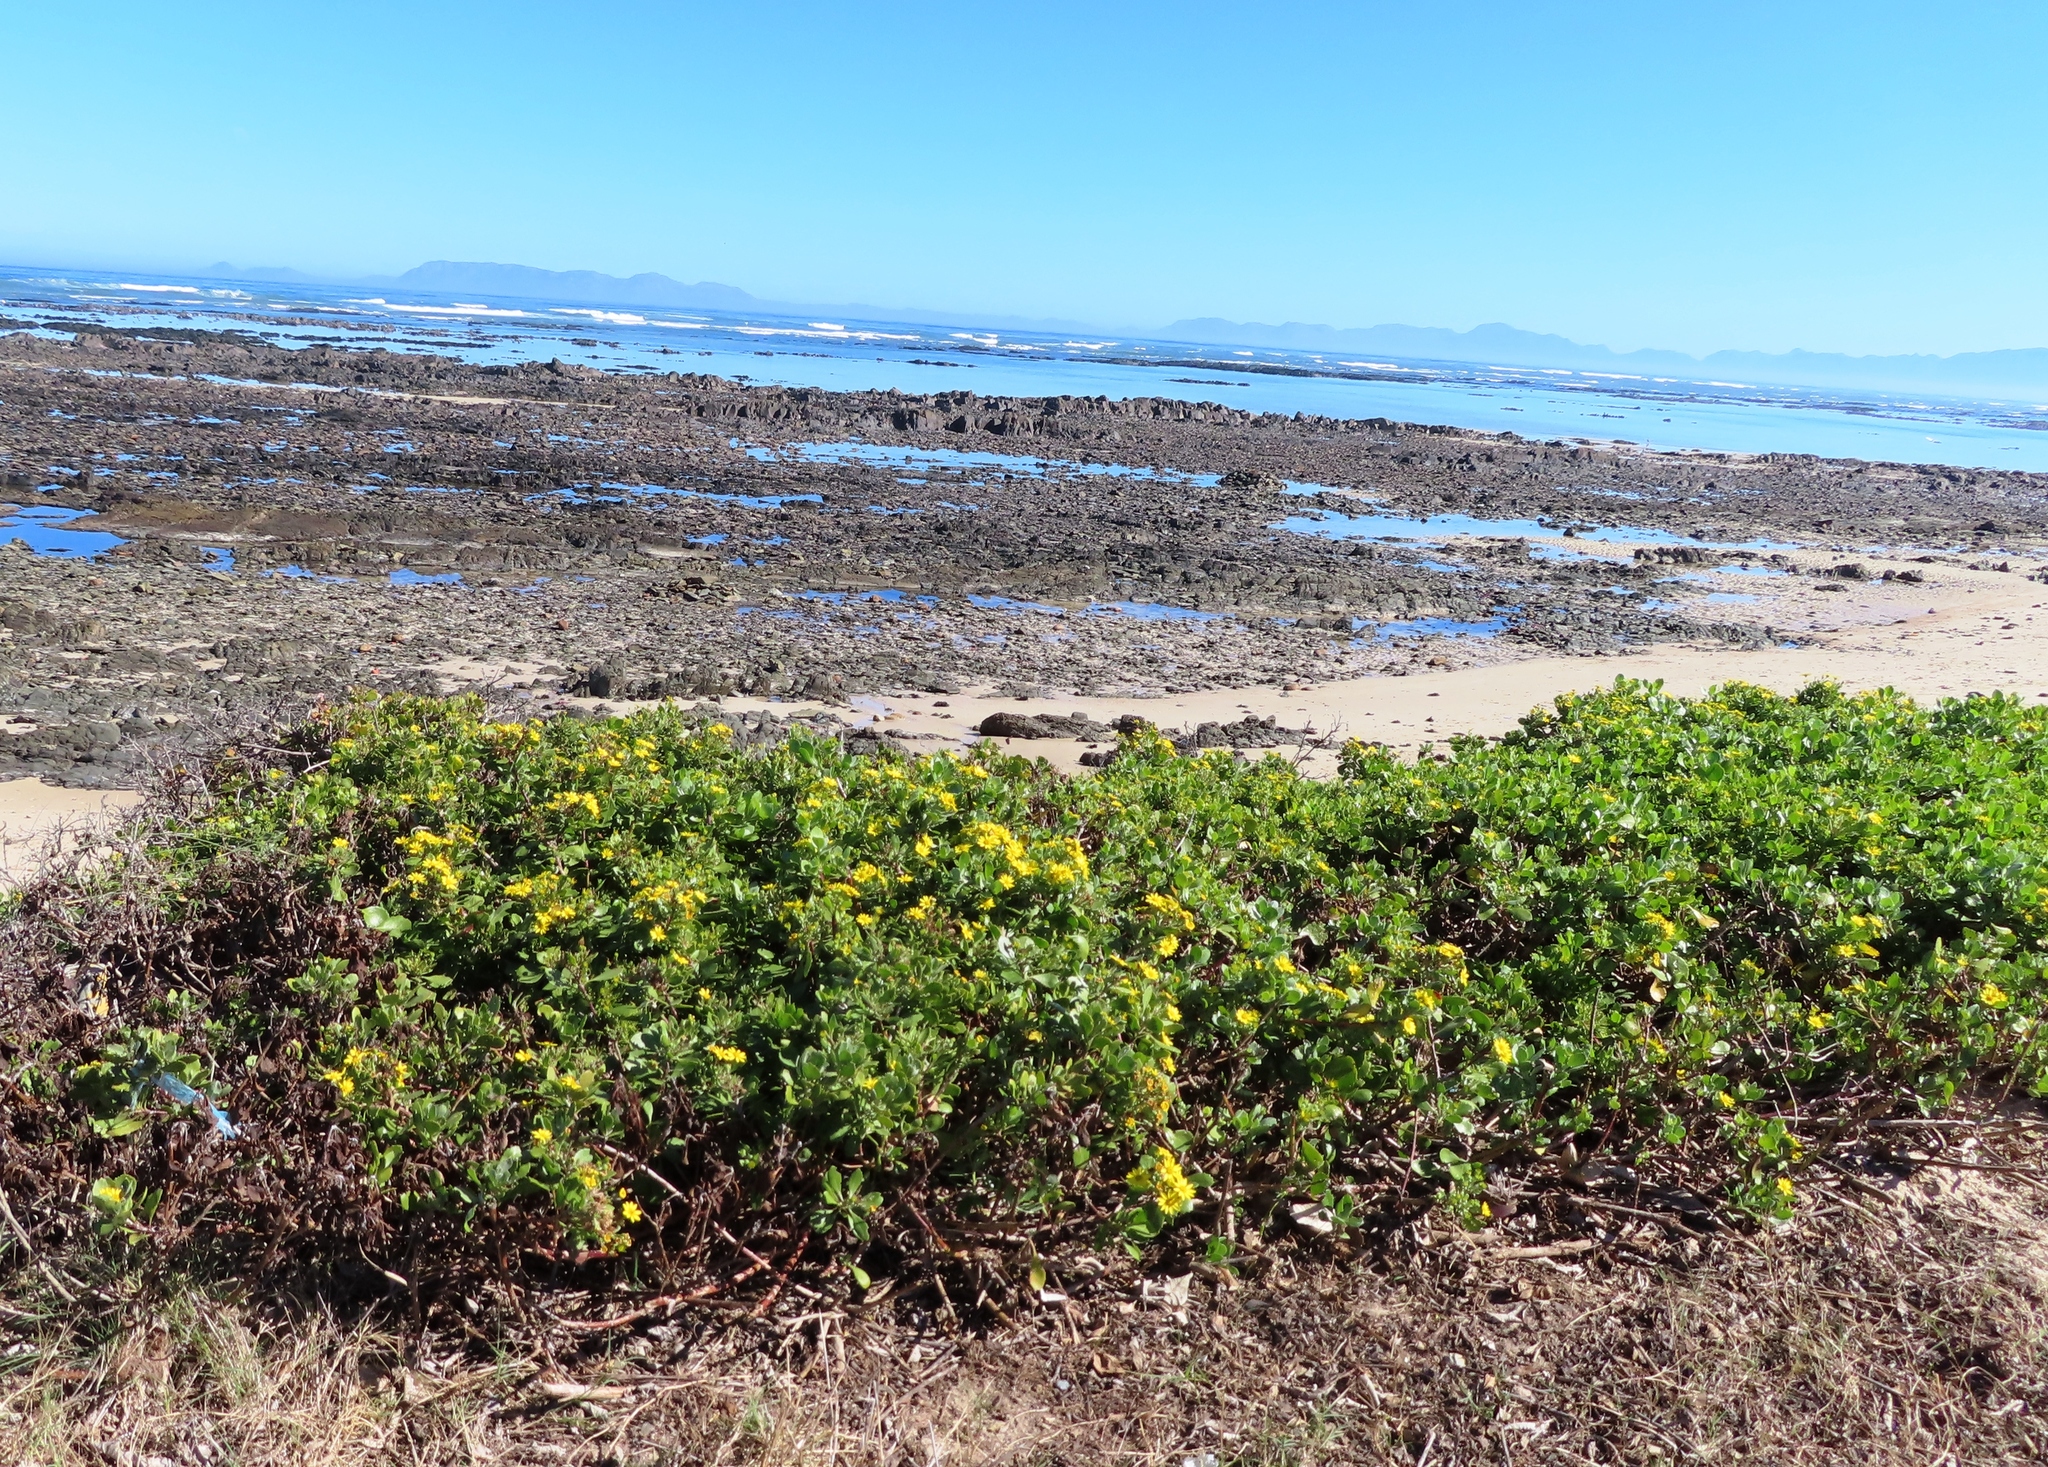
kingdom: Plantae
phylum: Tracheophyta
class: Magnoliopsida
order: Asterales
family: Asteraceae
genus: Osteospermum
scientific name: Osteospermum moniliferum
